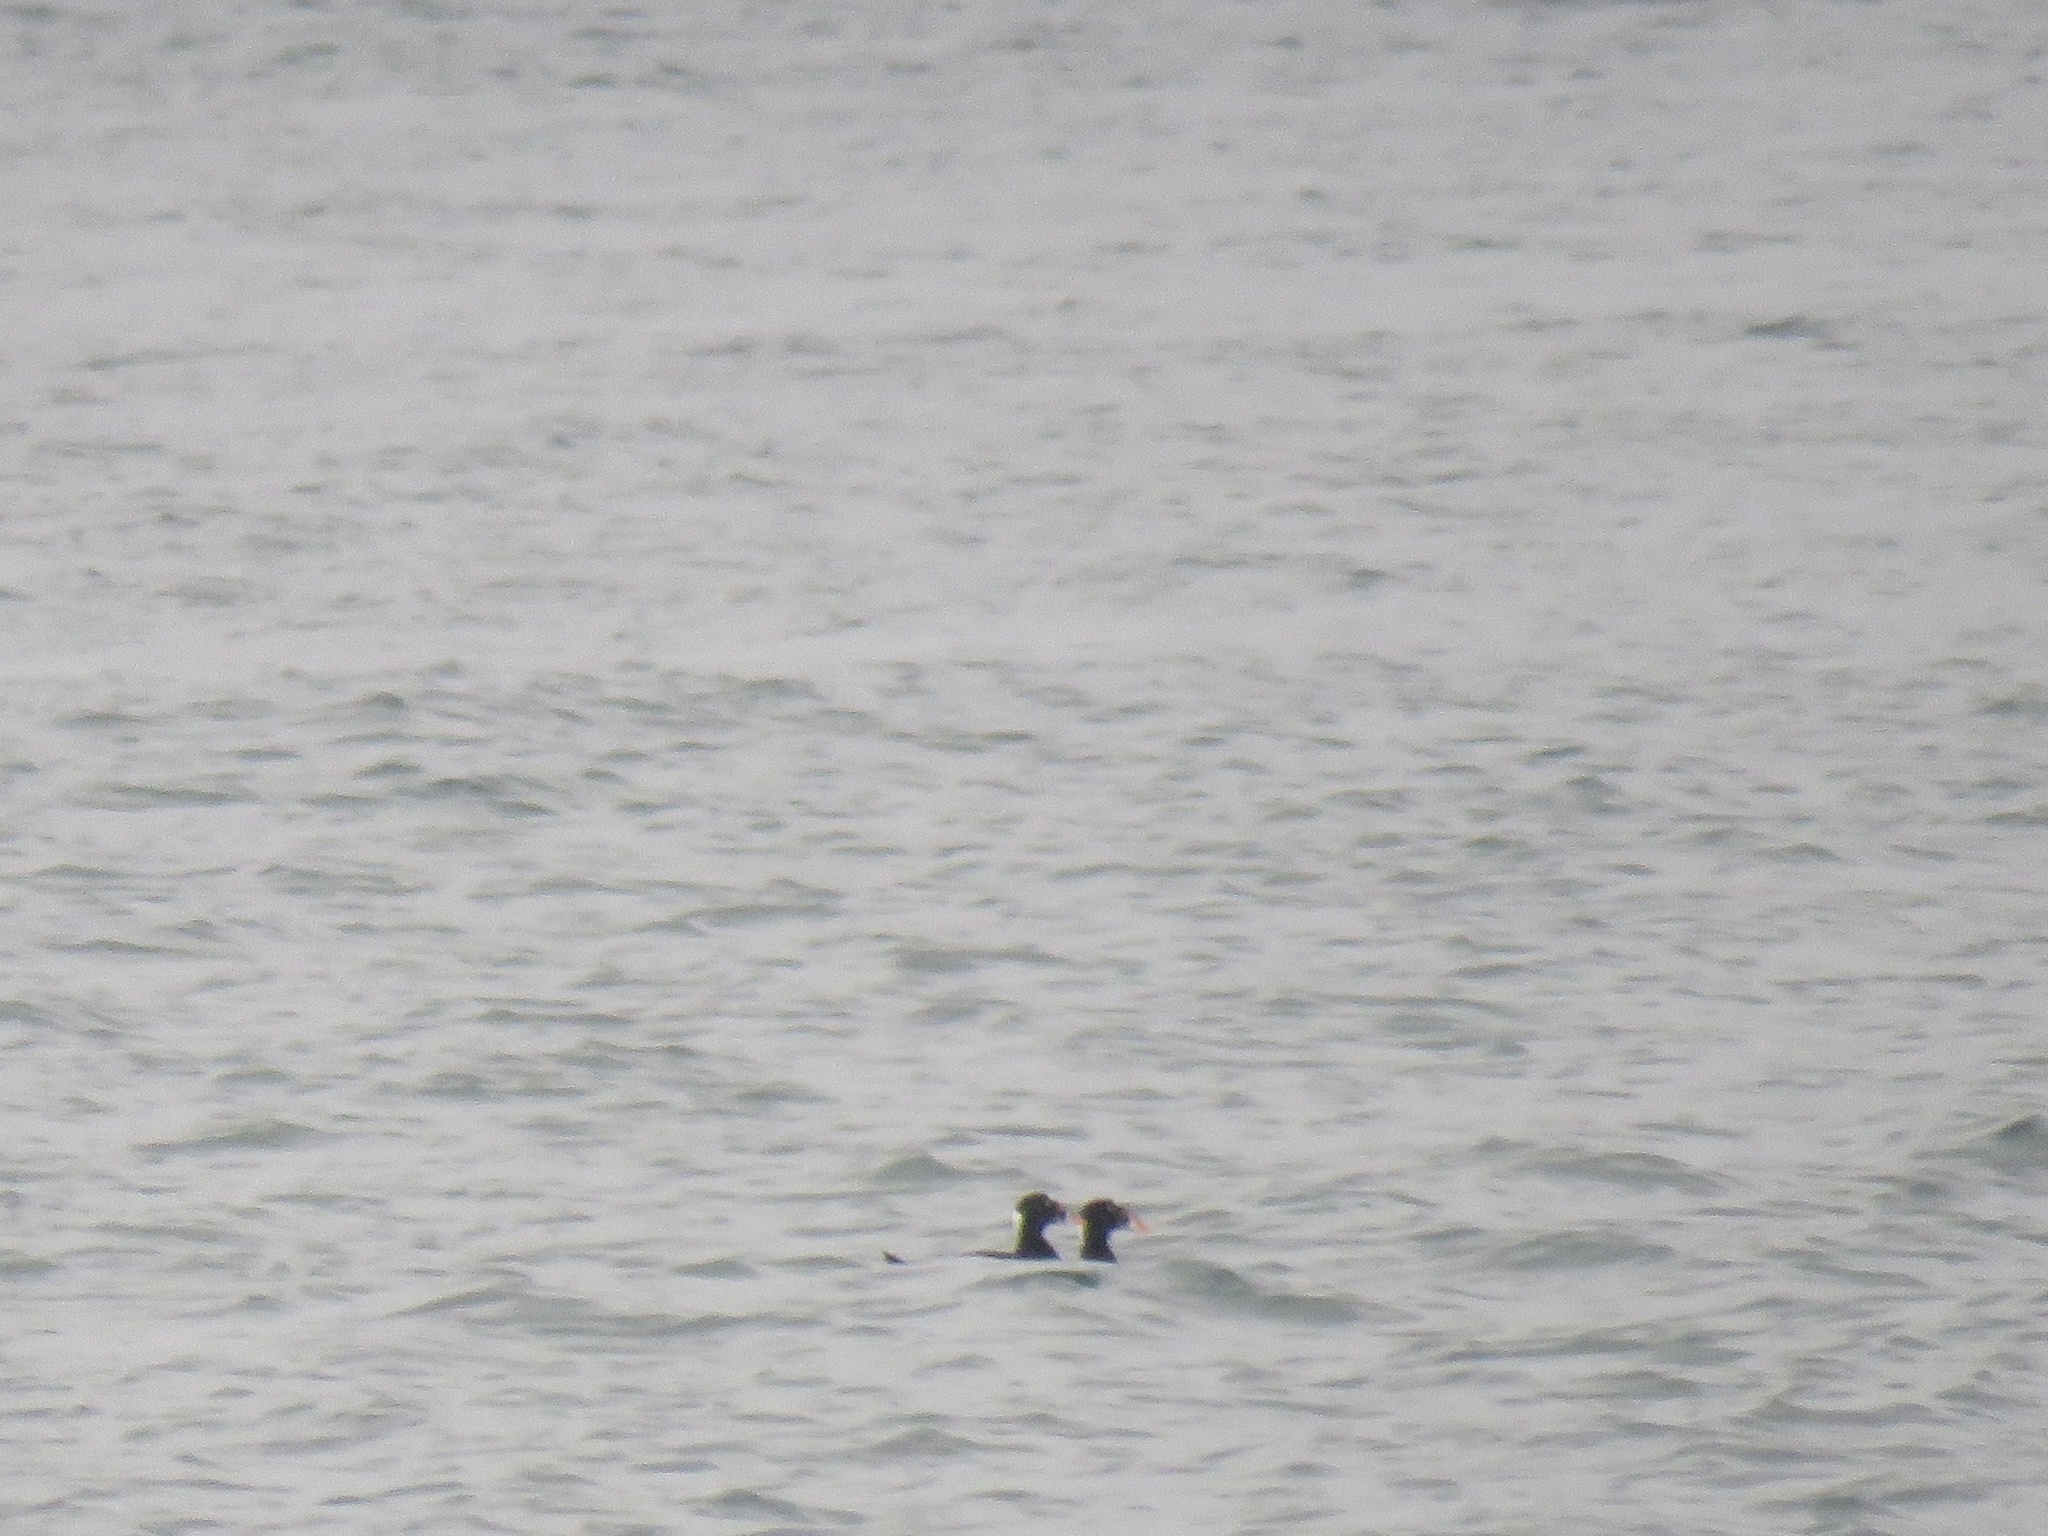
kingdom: Animalia
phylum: Chordata
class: Aves
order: Anseriformes
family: Anatidae
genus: Melanitta
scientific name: Melanitta perspicillata
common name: Surf scoter
